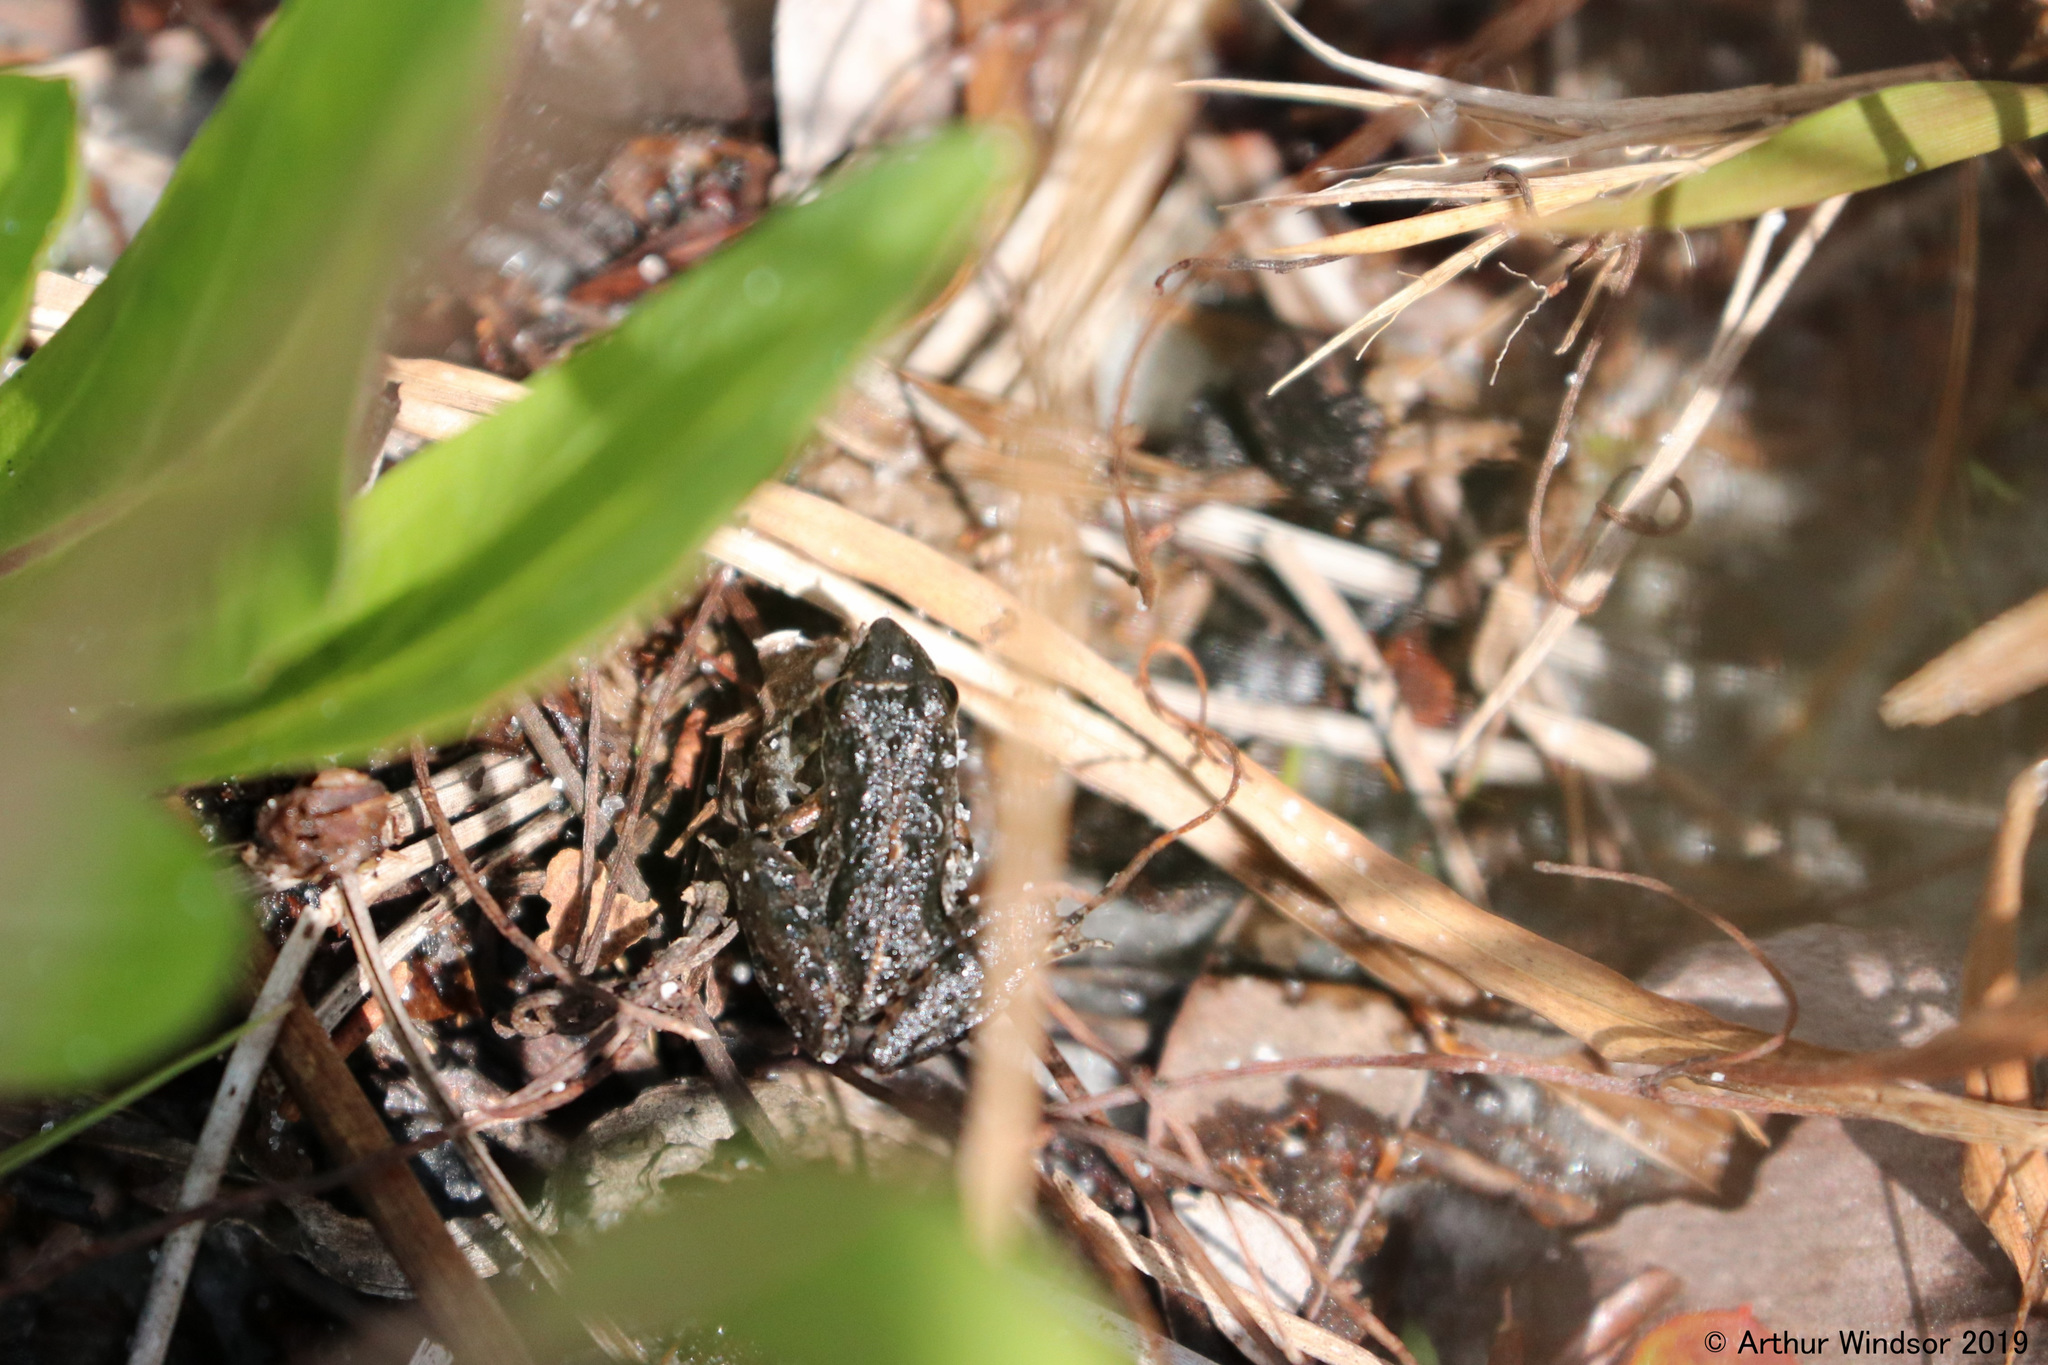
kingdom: Animalia
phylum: Chordata
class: Amphibia
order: Anura
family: Hylidae
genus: Acris
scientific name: Acris gryllus
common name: Southern cricket frog
